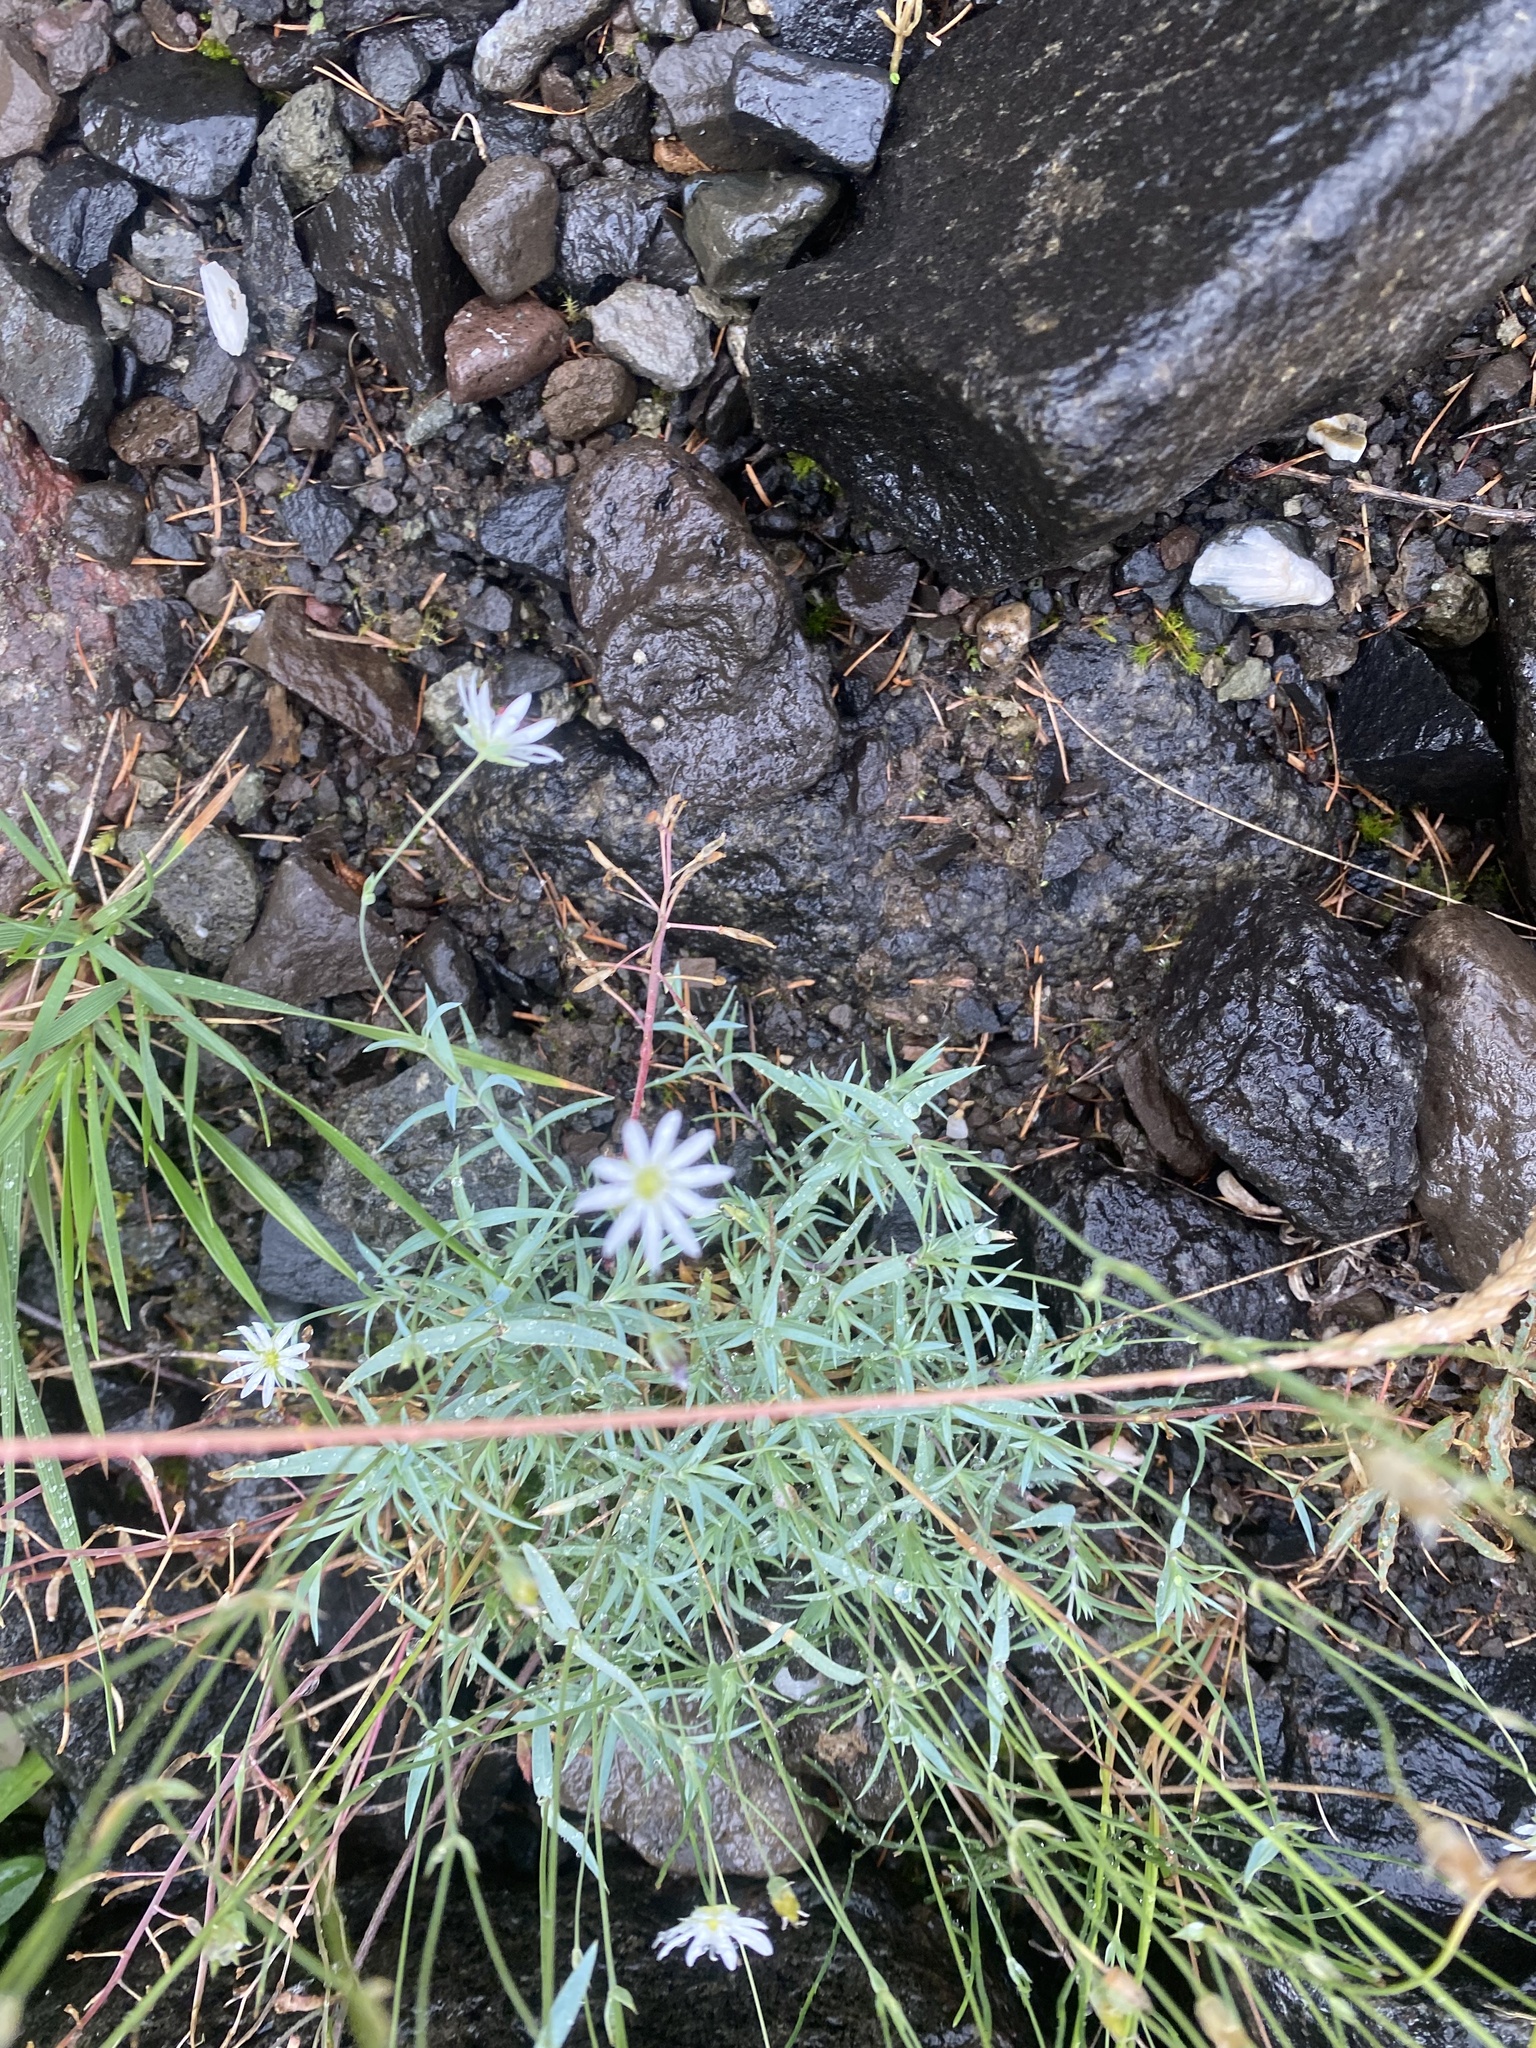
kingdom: Plantae
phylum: Tracheophyta
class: Magnoliopsida
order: Caryophyllales
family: Caryophyllaceae
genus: Stellaria
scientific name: Stellaria fischeriana
